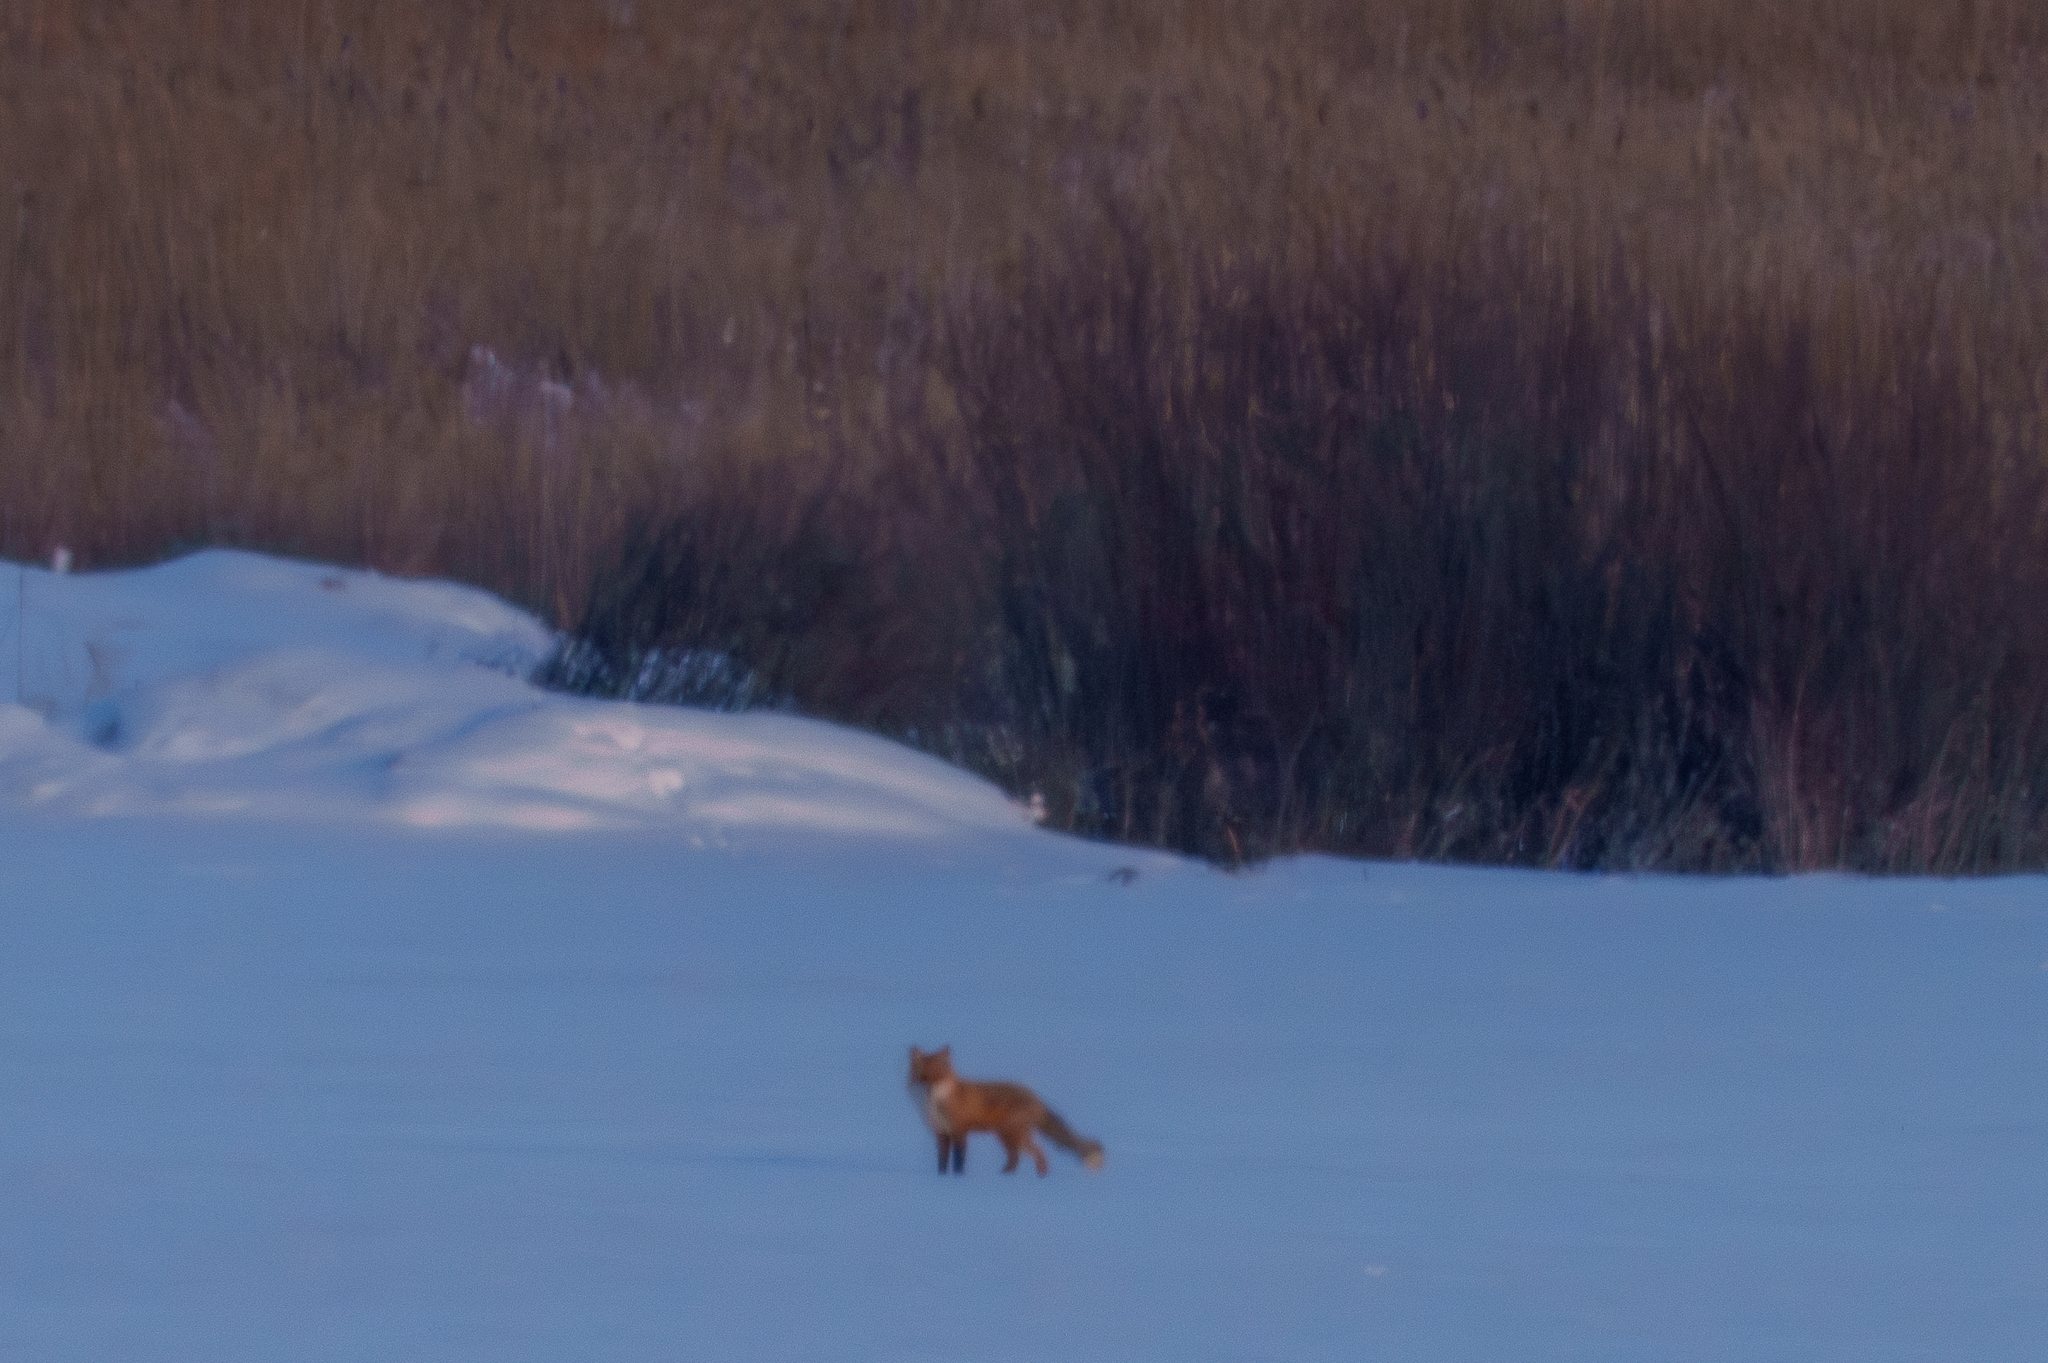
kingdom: Animalia
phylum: Chordata
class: Mammalia
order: Carnivora
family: Canidae
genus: Vulpes
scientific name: Vulpes vulpes
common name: Red fox
